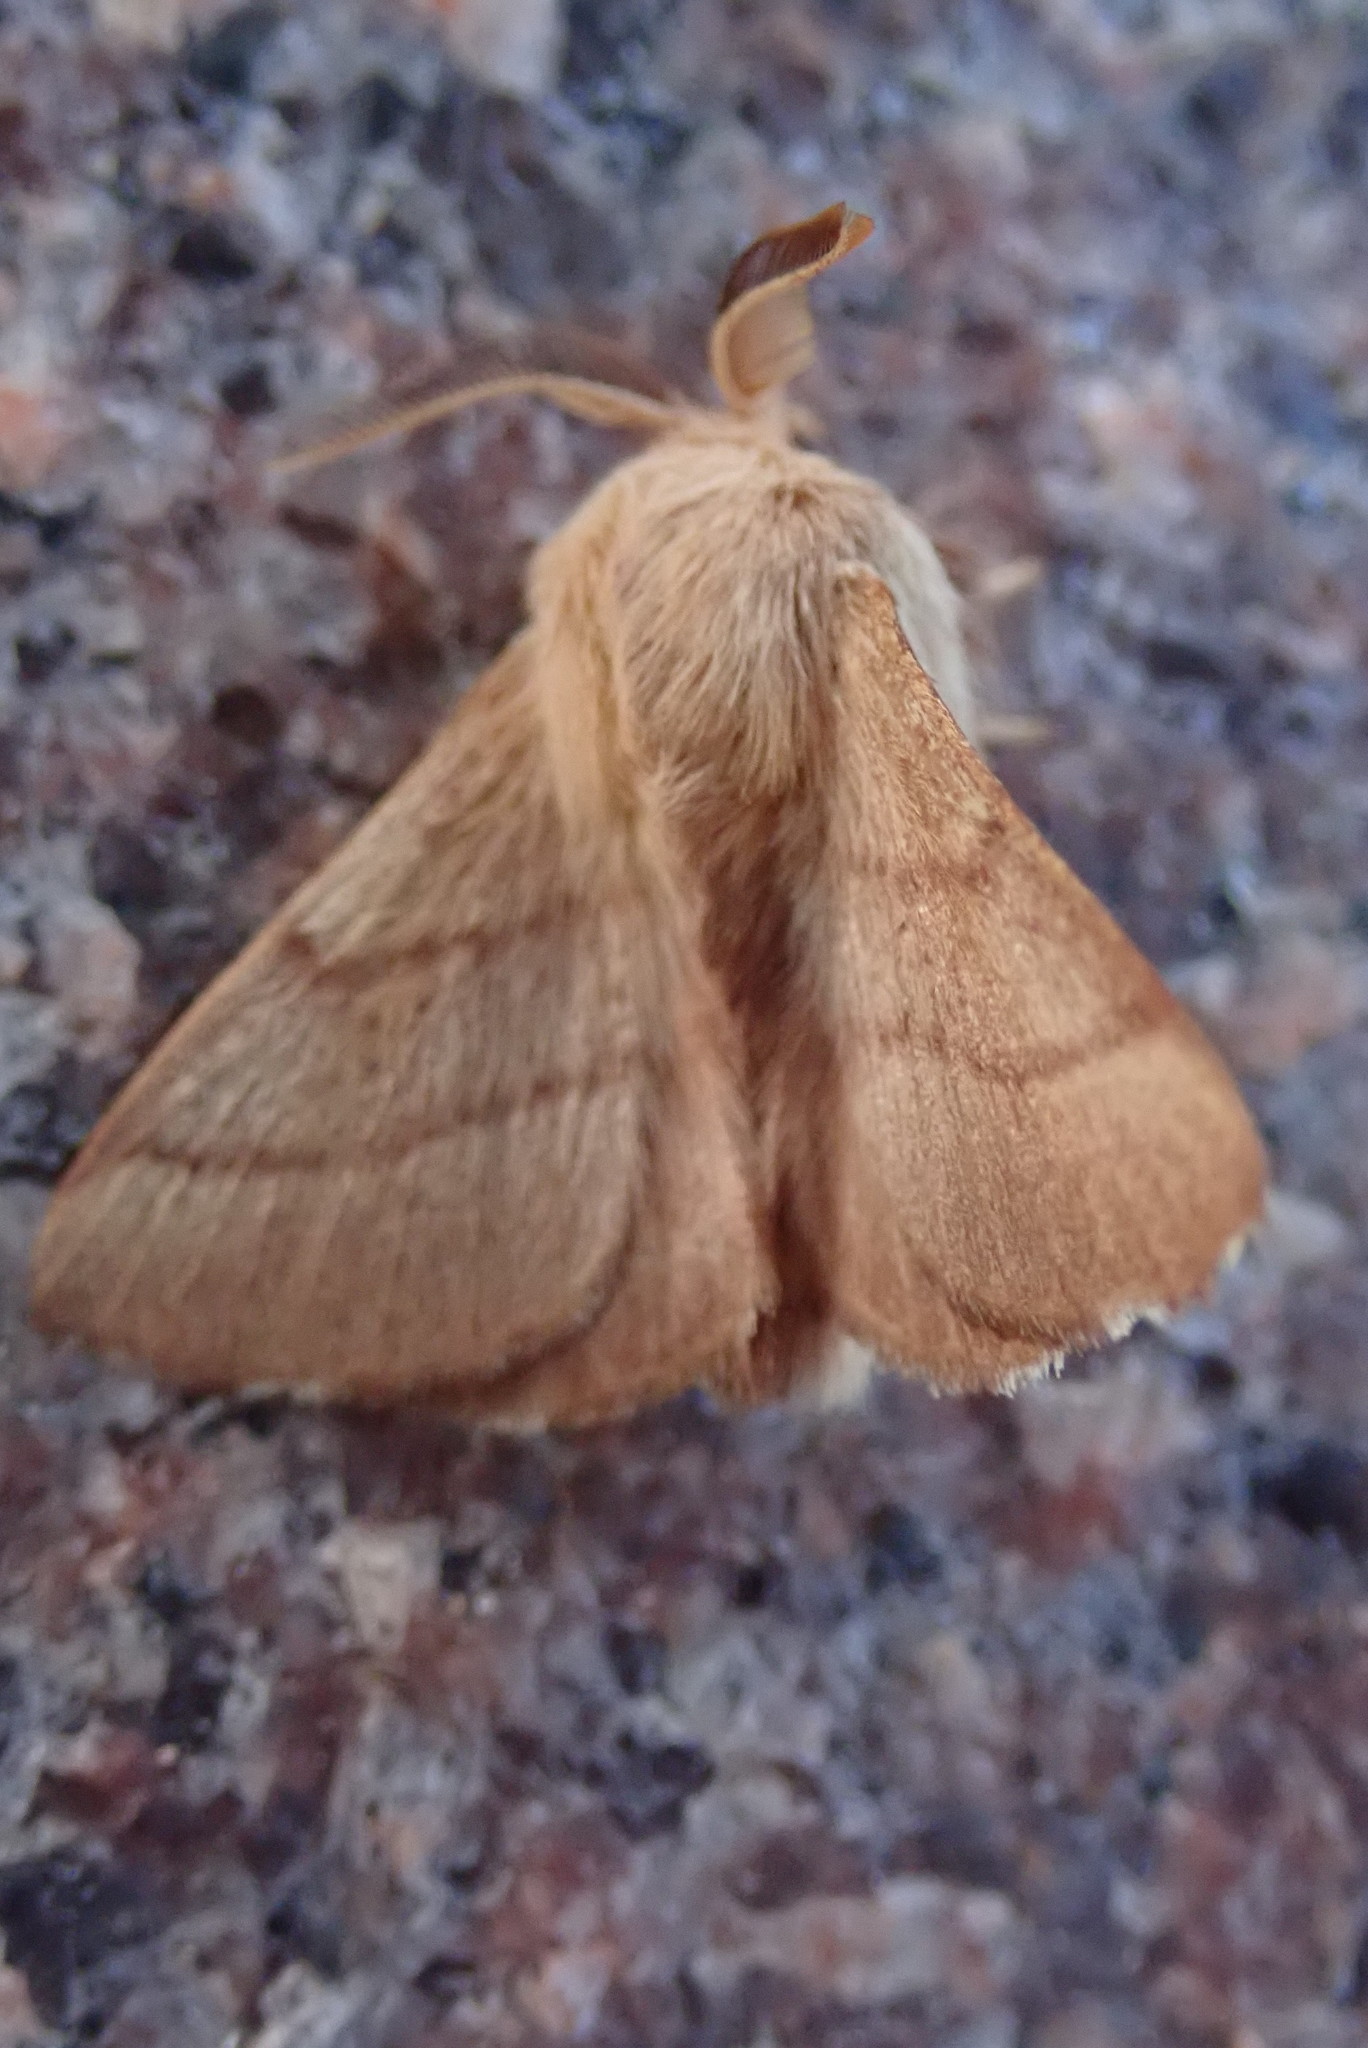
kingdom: Animalia
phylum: Arthropoda
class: Insecta
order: Lepidoptera
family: Lasiocampidae
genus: Malacosoma
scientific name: Malacosoma disstria
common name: Forest tent caterpillar
